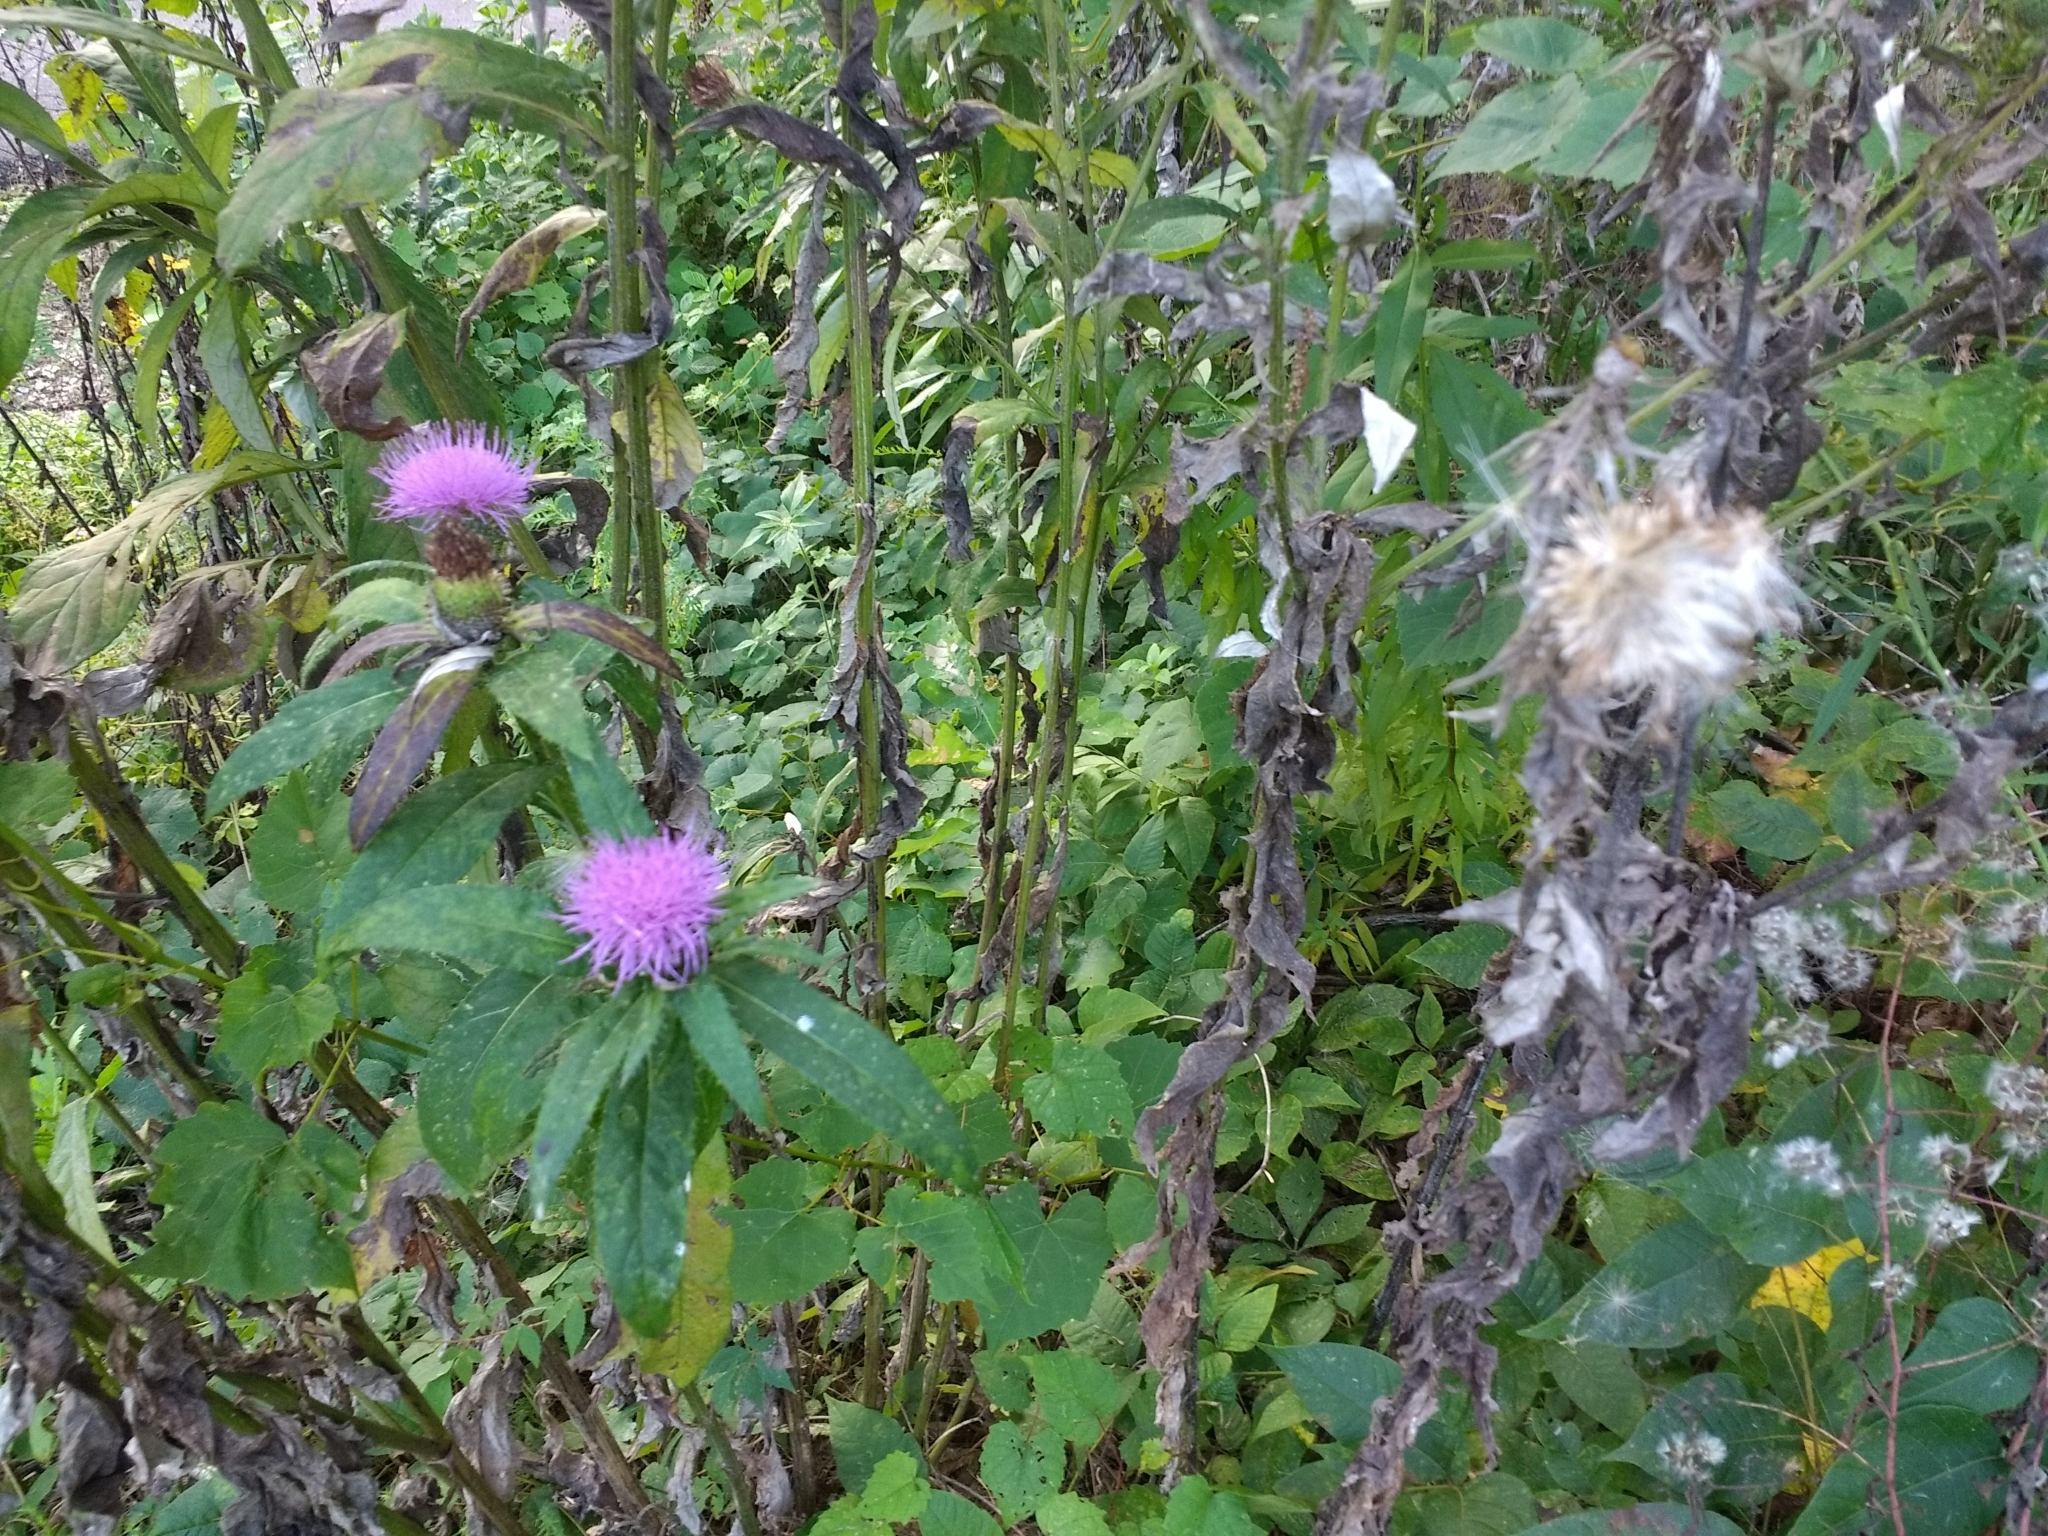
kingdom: Plantae
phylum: Tracheophyta
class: Magnoliopsida
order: Asterales
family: Asteraceae
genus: Cirsium
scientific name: Cirsium altissimum
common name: Roadside thistle
